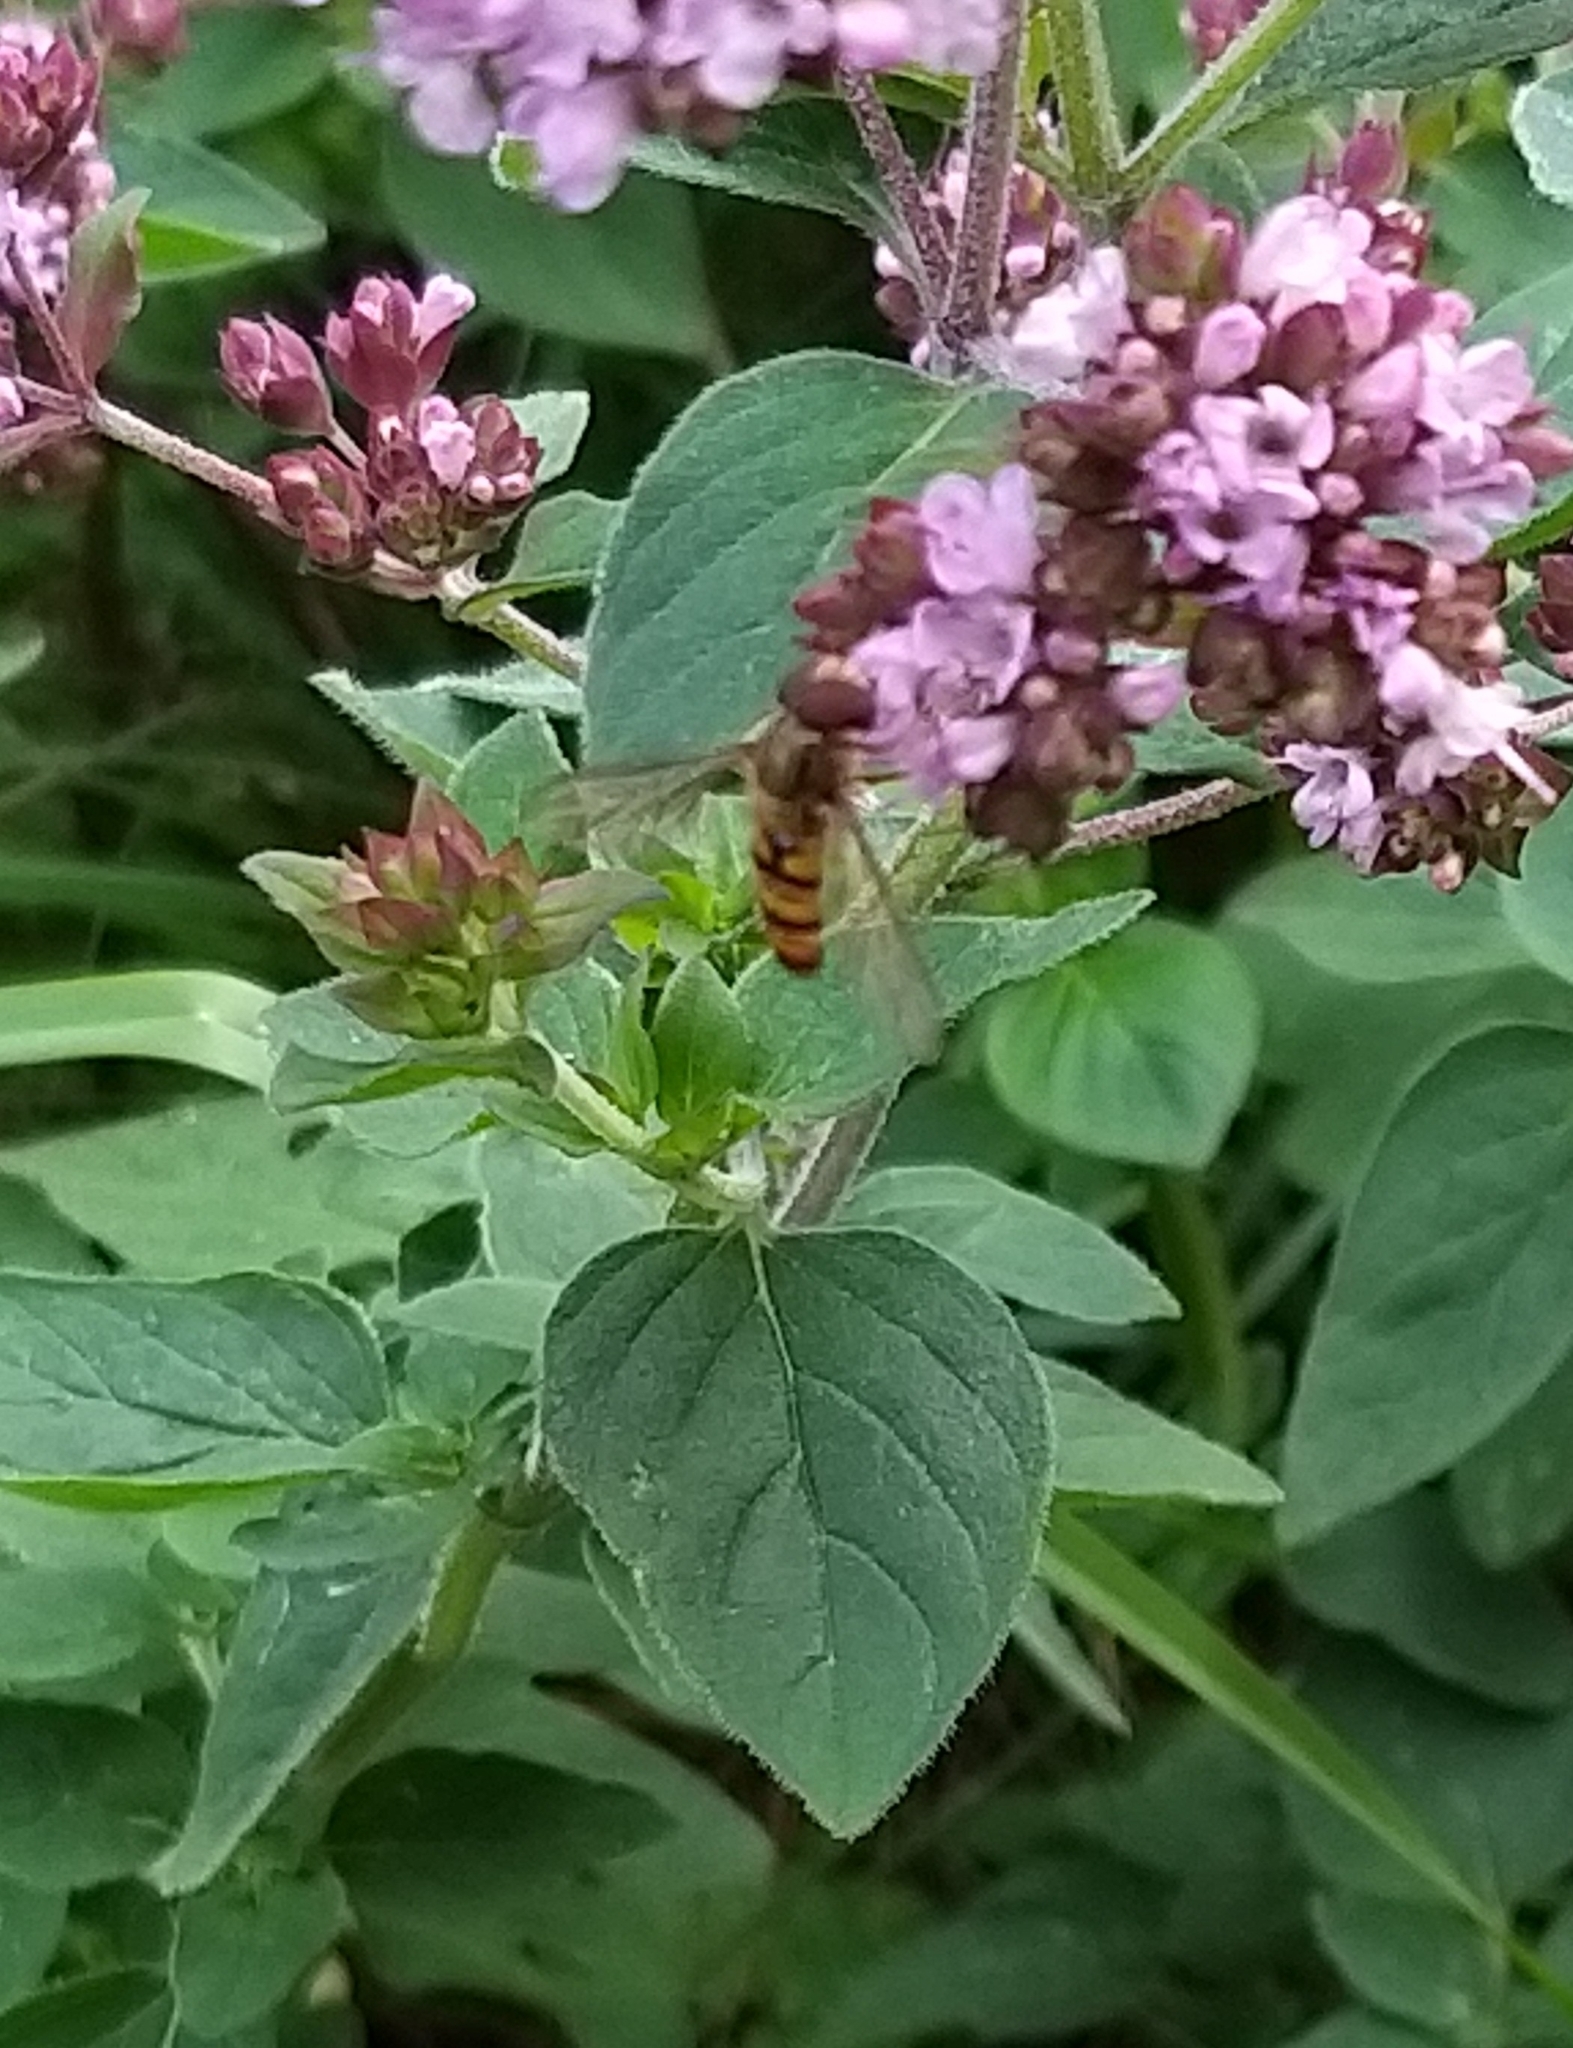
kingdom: Animalia
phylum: Arthropoda
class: Insecta
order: Diptera
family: Syrphidae
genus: Episyrphus
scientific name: Episyrphus balteatus
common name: Marmalade hoverfly
